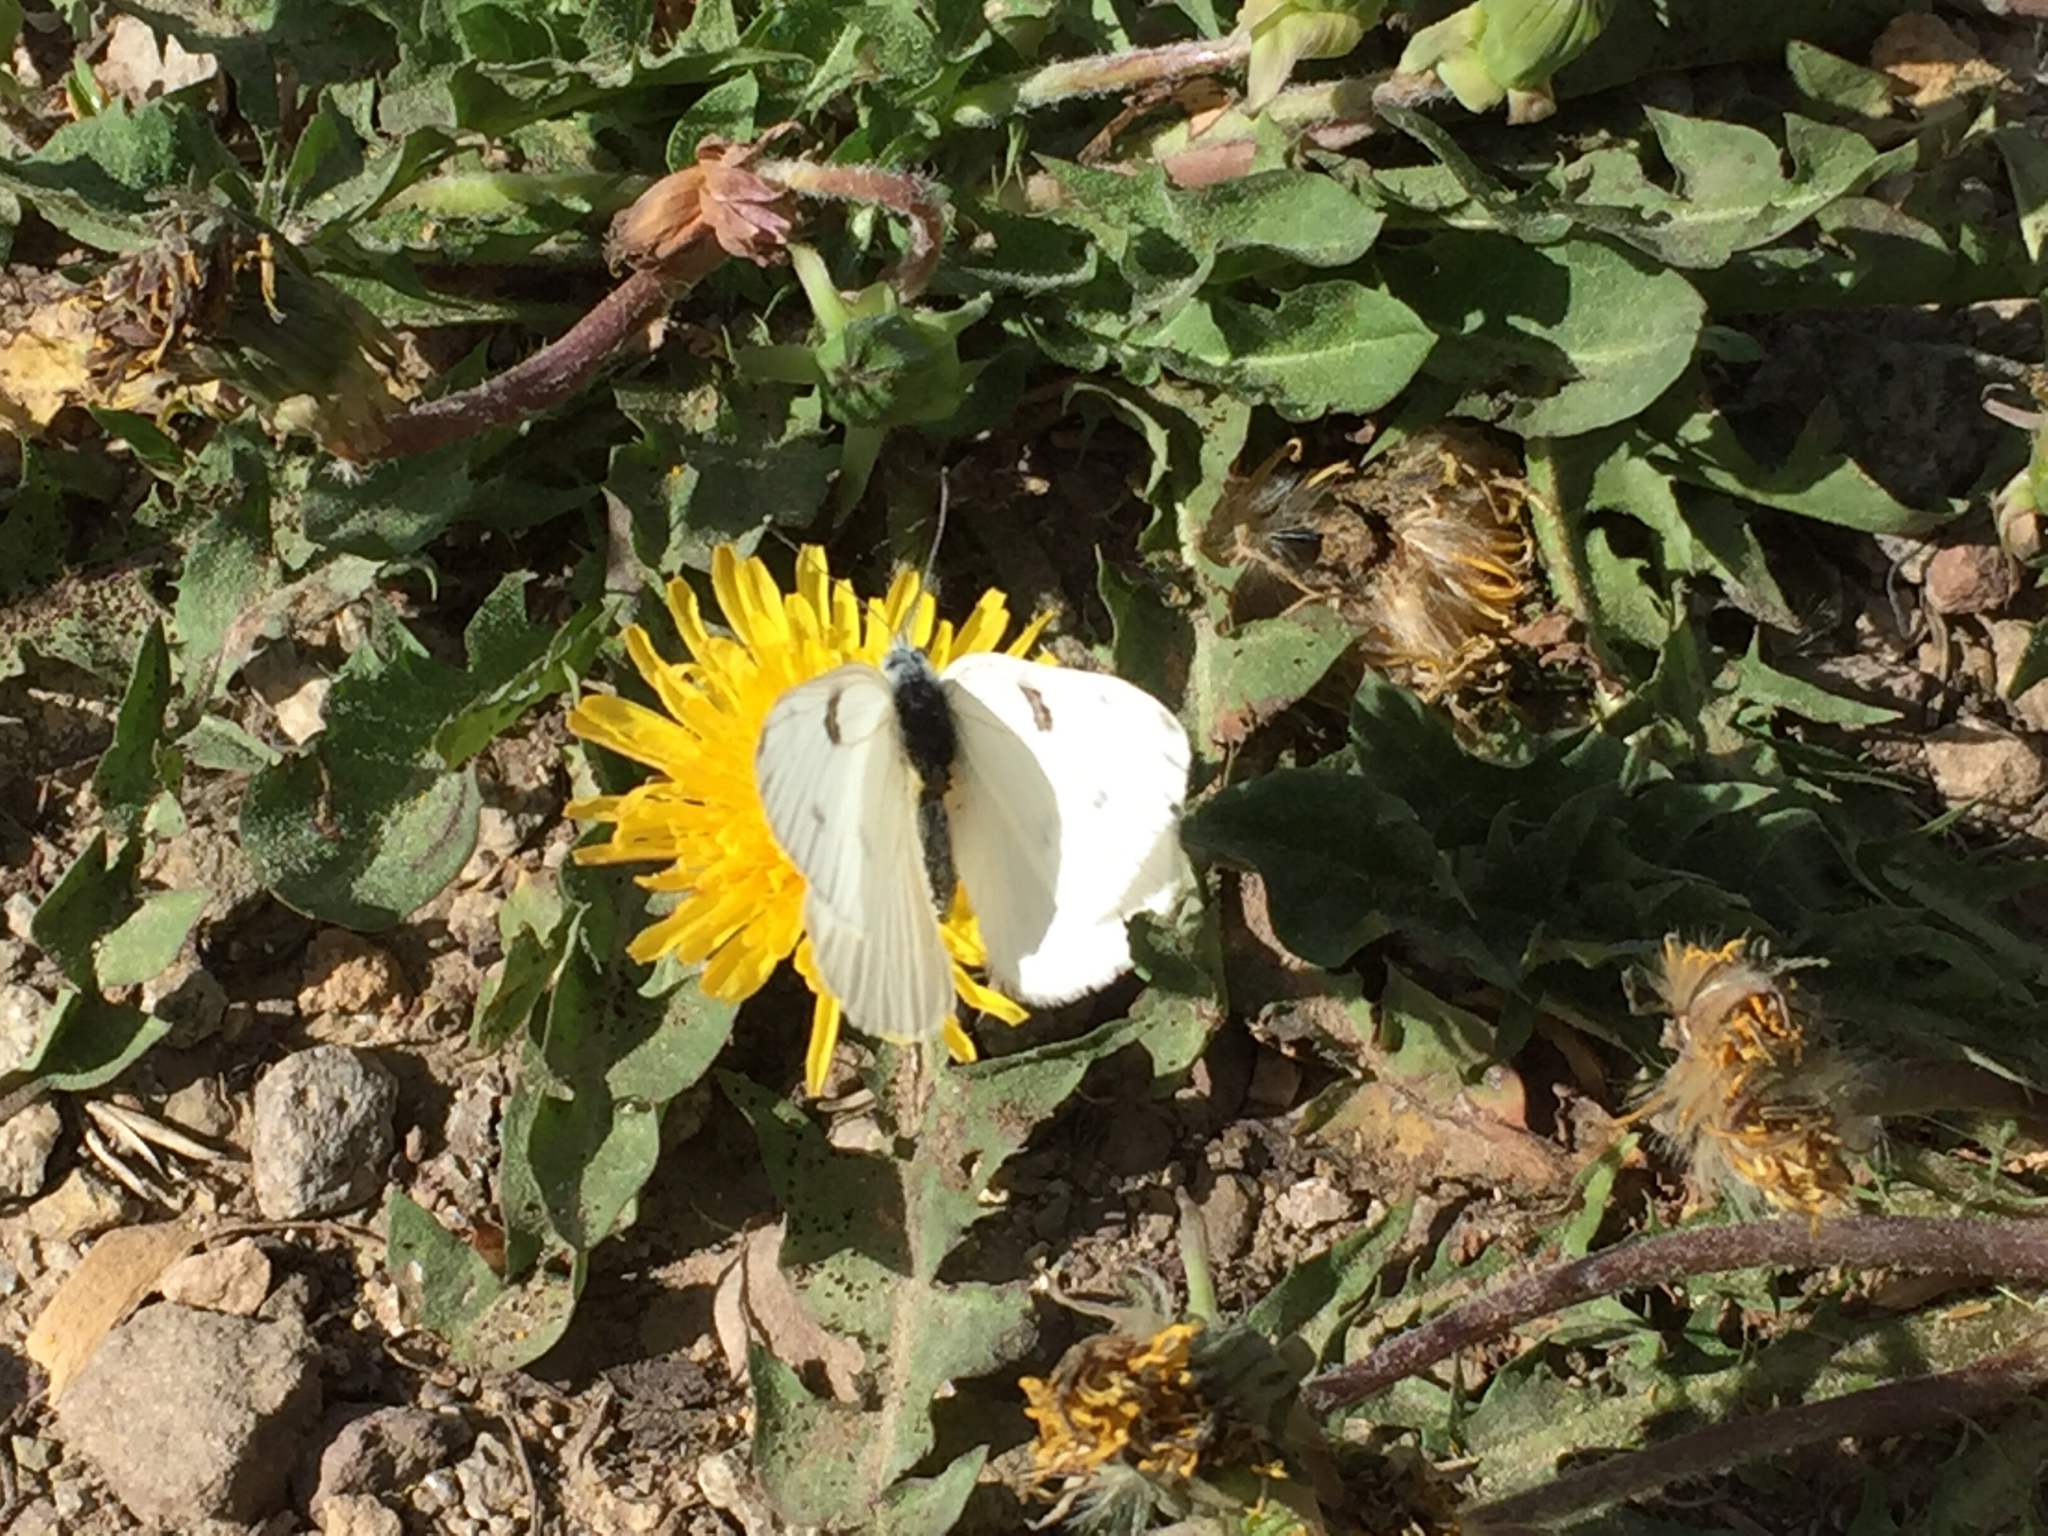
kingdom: Animalia
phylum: Arthropoda
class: Insecta
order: Lepidoptera
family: Pieridae
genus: Pontia
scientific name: Pontia protodice
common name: Checkered white
